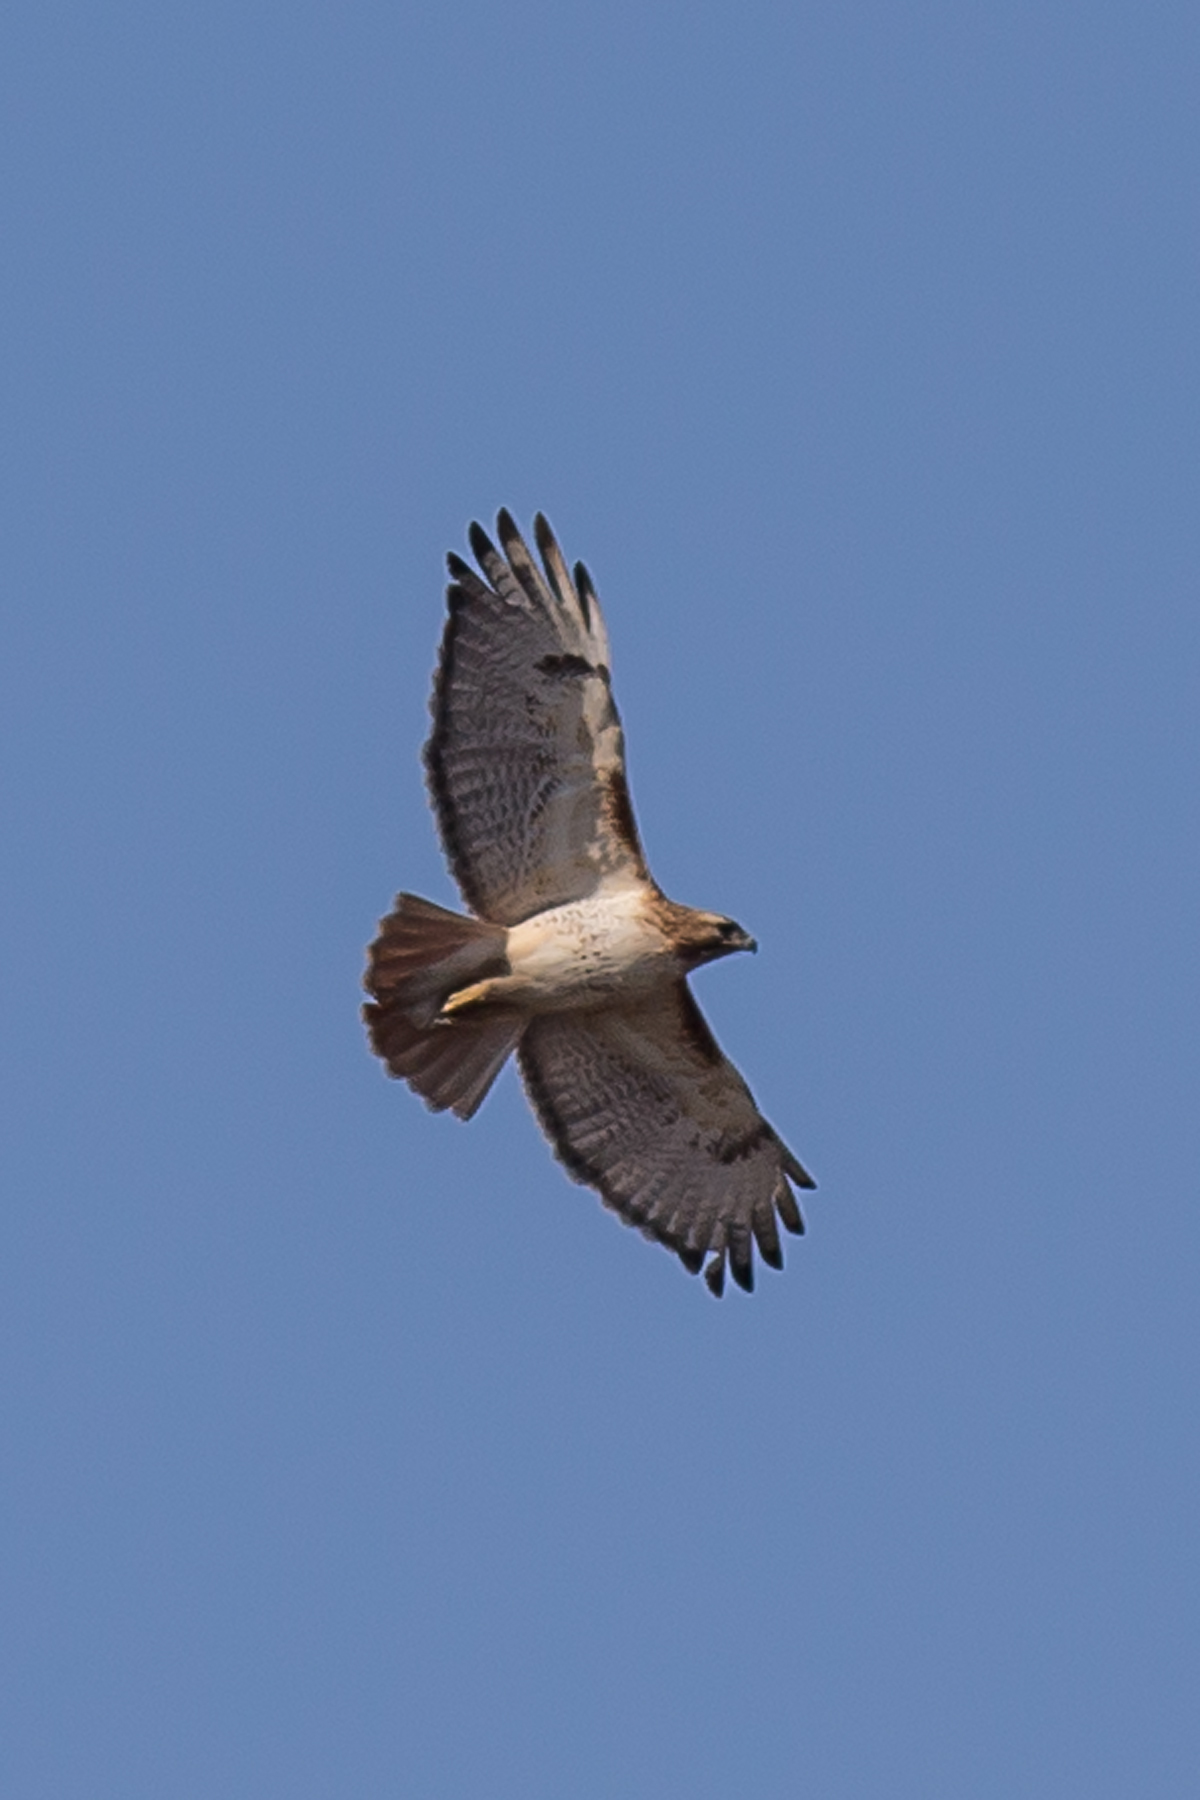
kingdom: Animalia
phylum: Chordata
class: Aves
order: Accipitriformes
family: Accipitridae
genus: Buteo
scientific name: Buteo jamaicensis
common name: Red-tailed hawk
